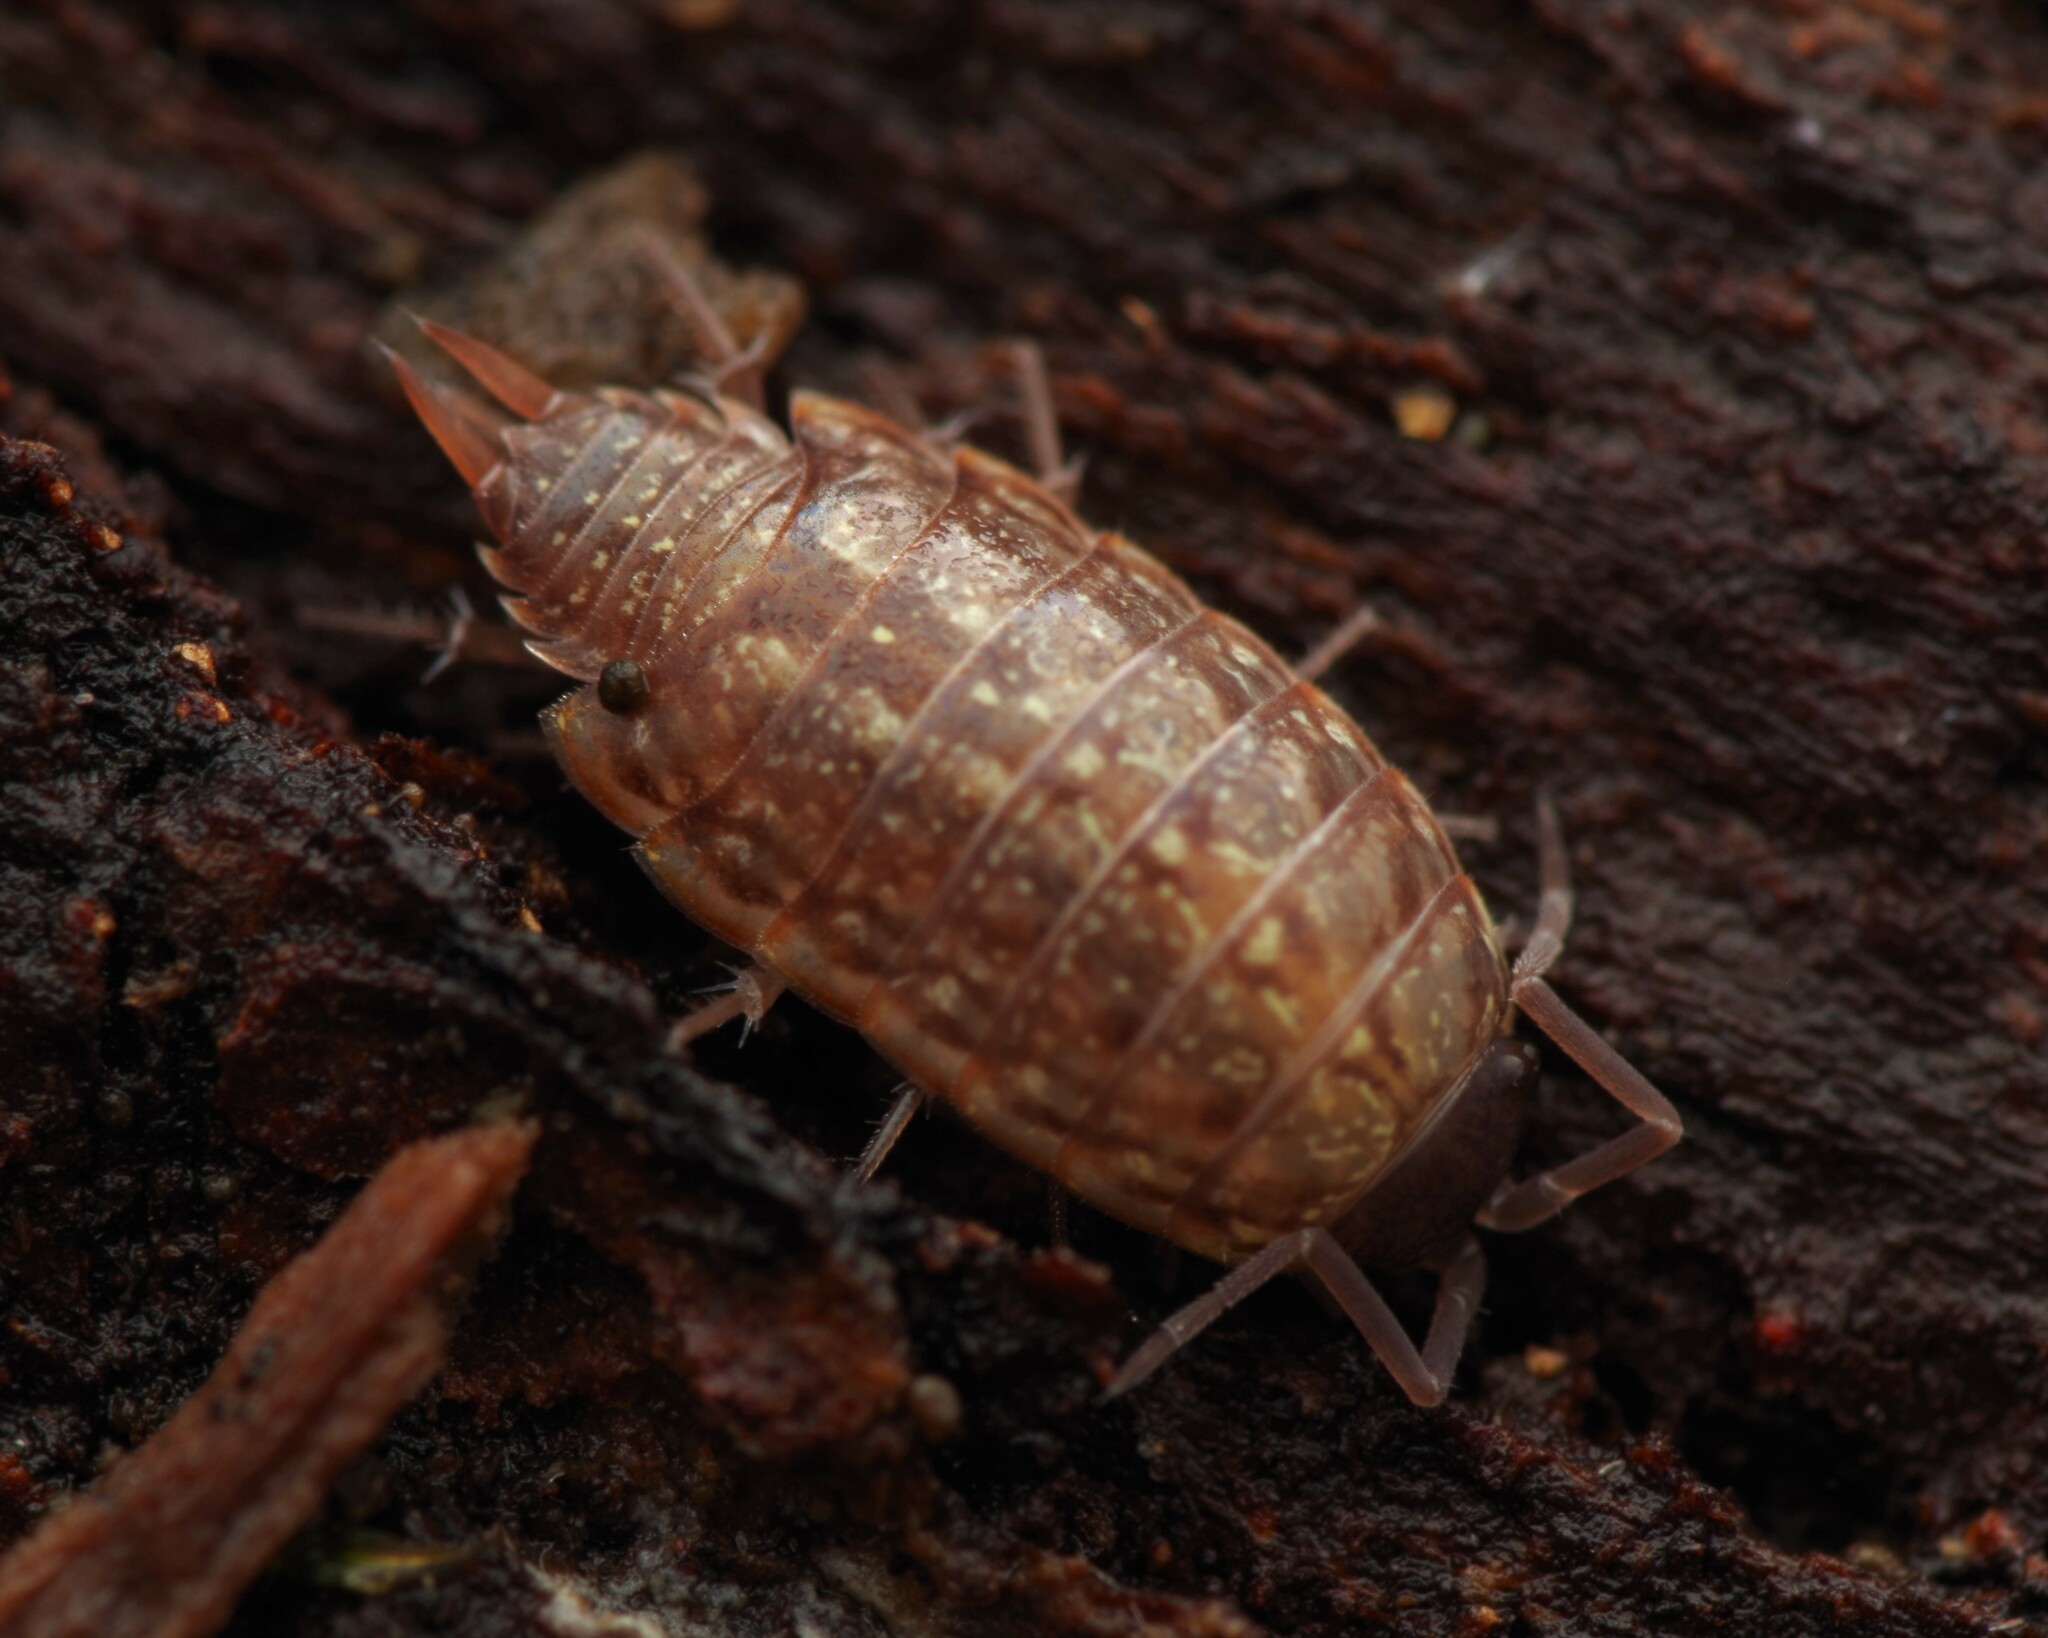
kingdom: Animalia
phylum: Arthropoda
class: Malacostraca
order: Isopoda
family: Philosciidae
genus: Philoscia
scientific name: Philoscia muscorum
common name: Common striped woodlouse
